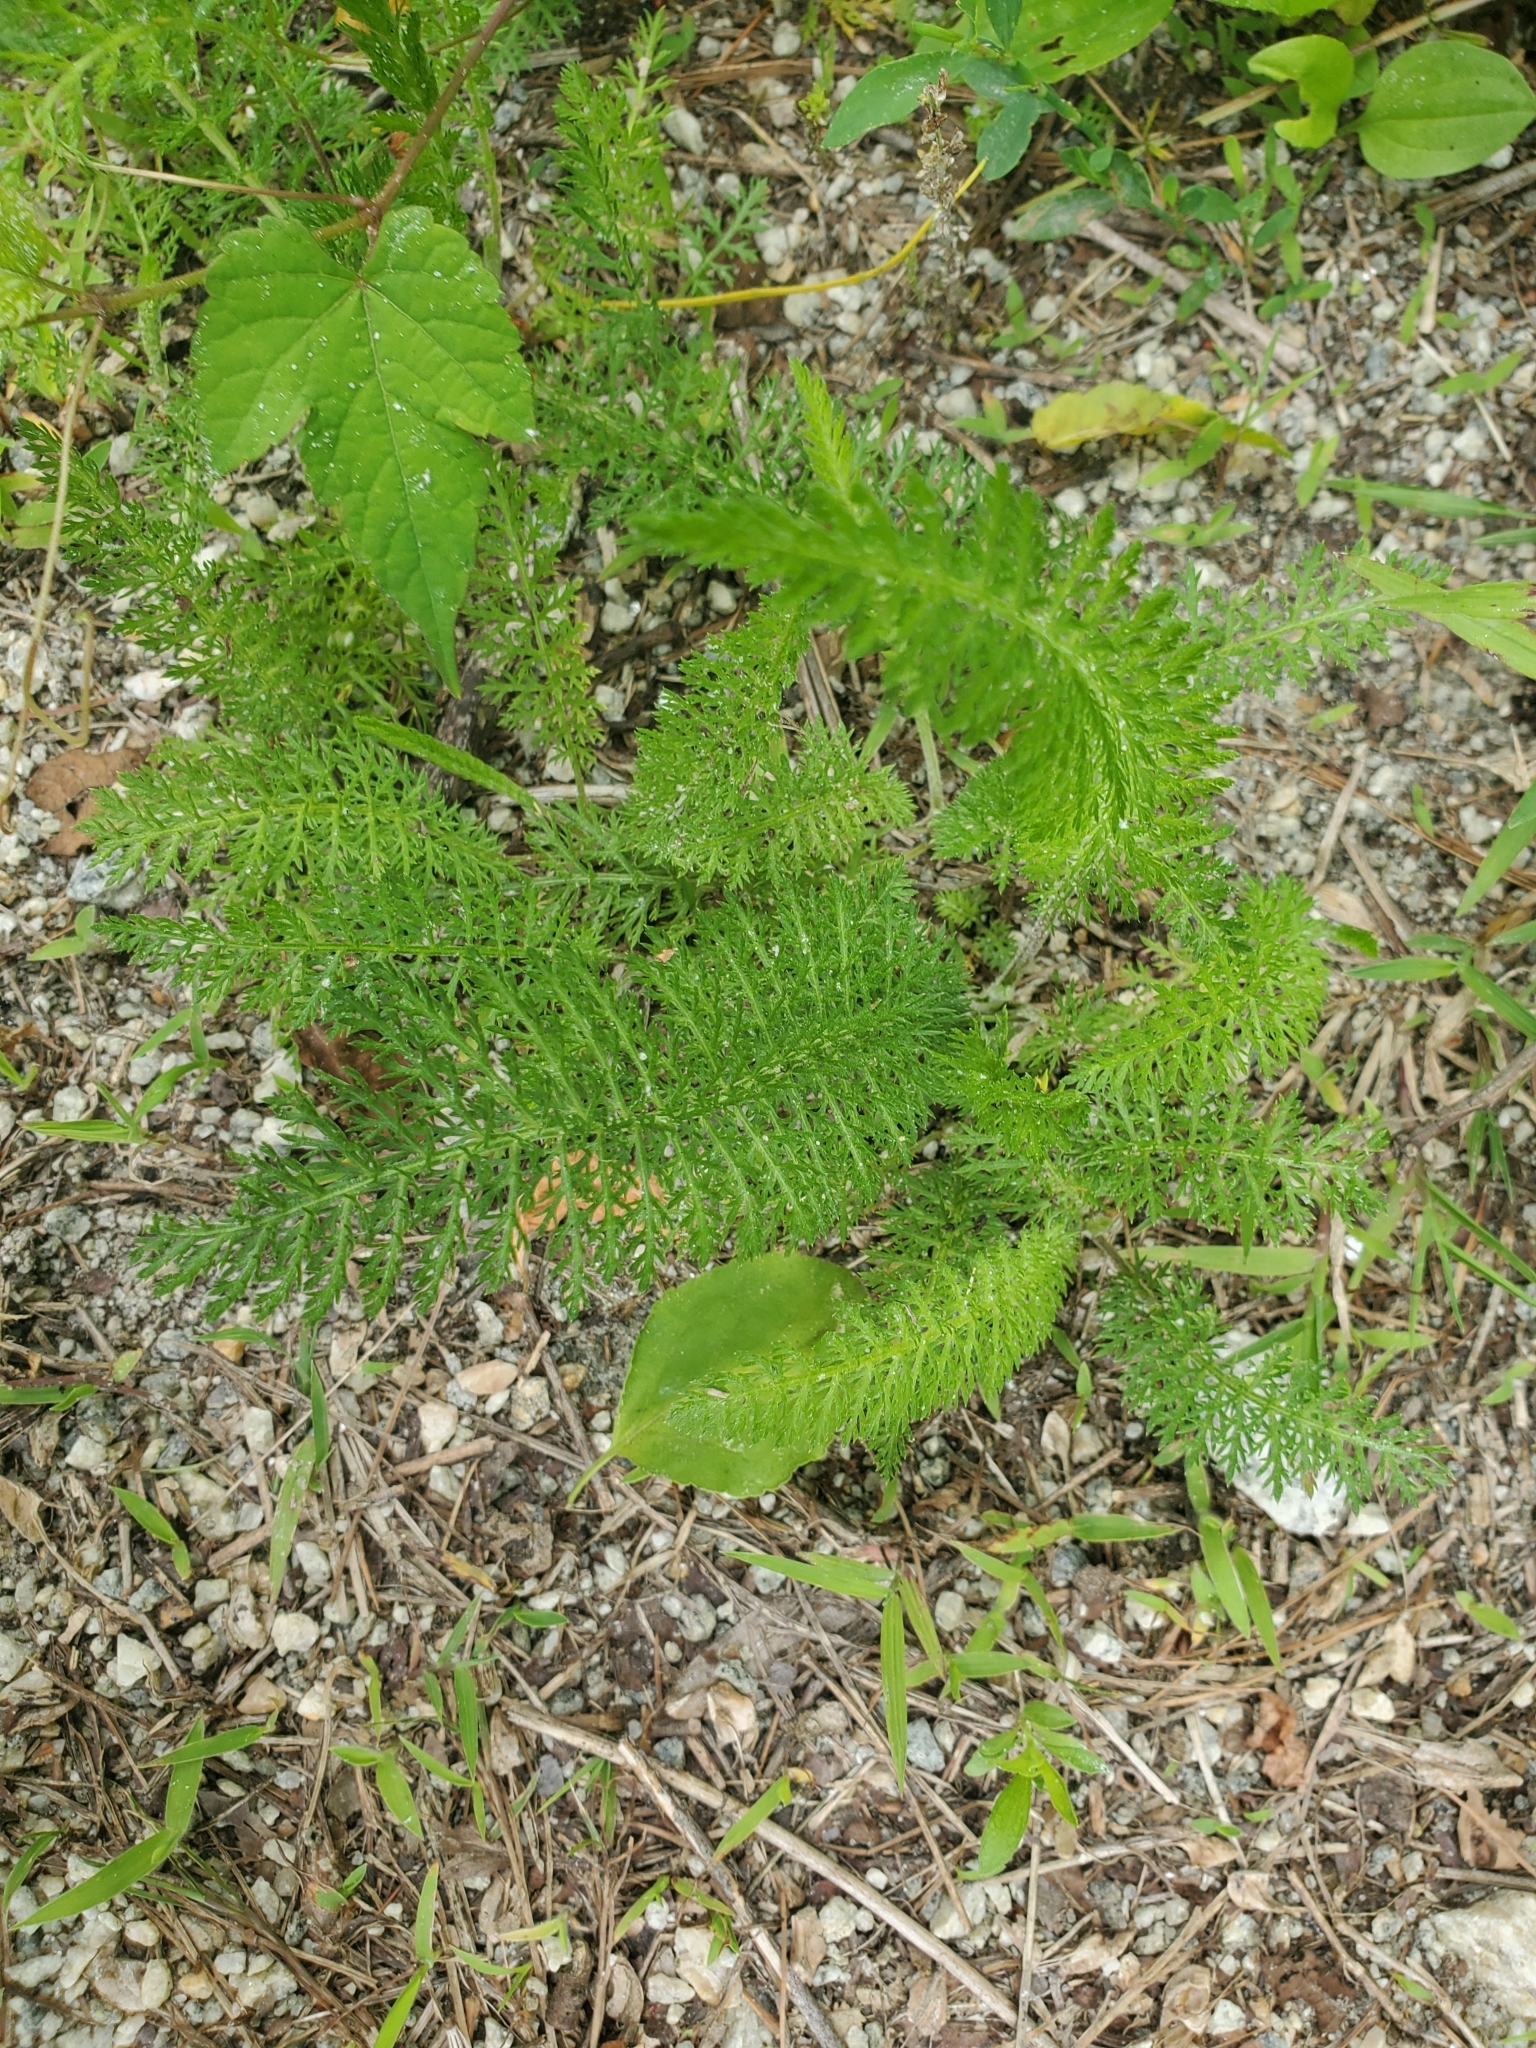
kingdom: Plantae
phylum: Tracheophyta
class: Magnoliopsida
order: Asterales
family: Asteraceae
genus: Achillea
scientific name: Achillea millefolium
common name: Yarrow
